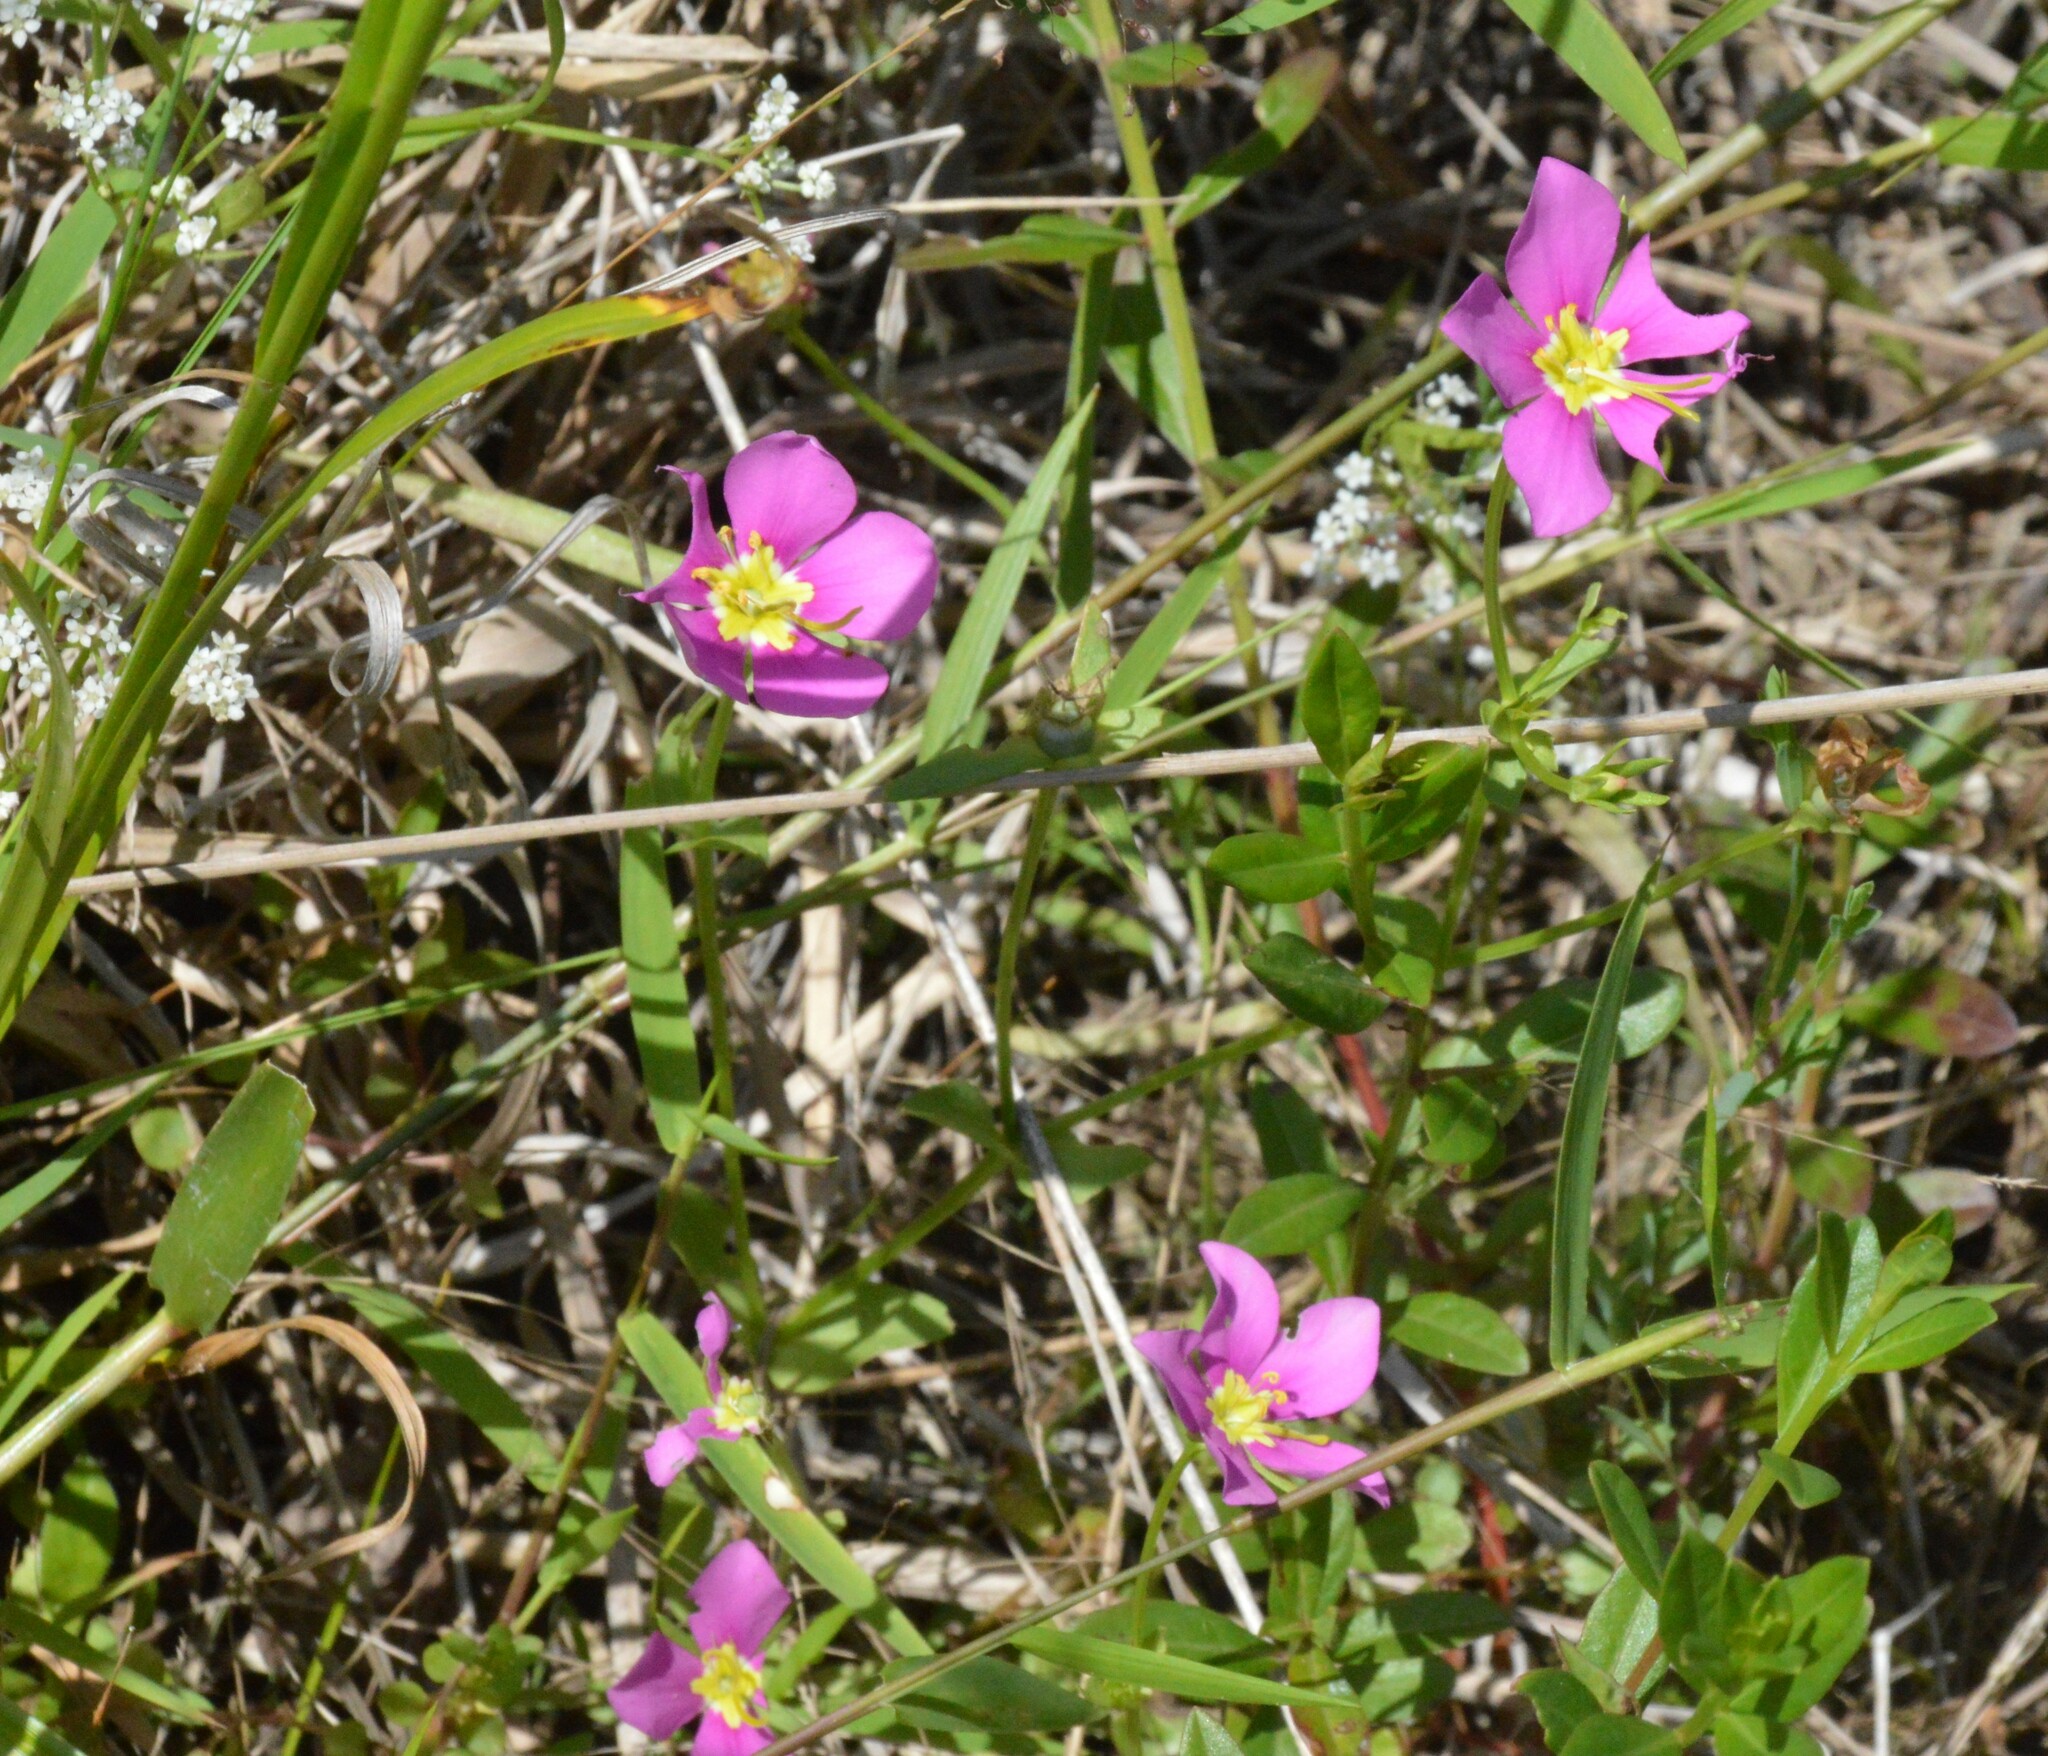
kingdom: Plantae
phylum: Tracheophyta
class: Magnoliopsida
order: Gentianales
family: Gentianaceae
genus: Sabatia
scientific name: Sabatia campestris
